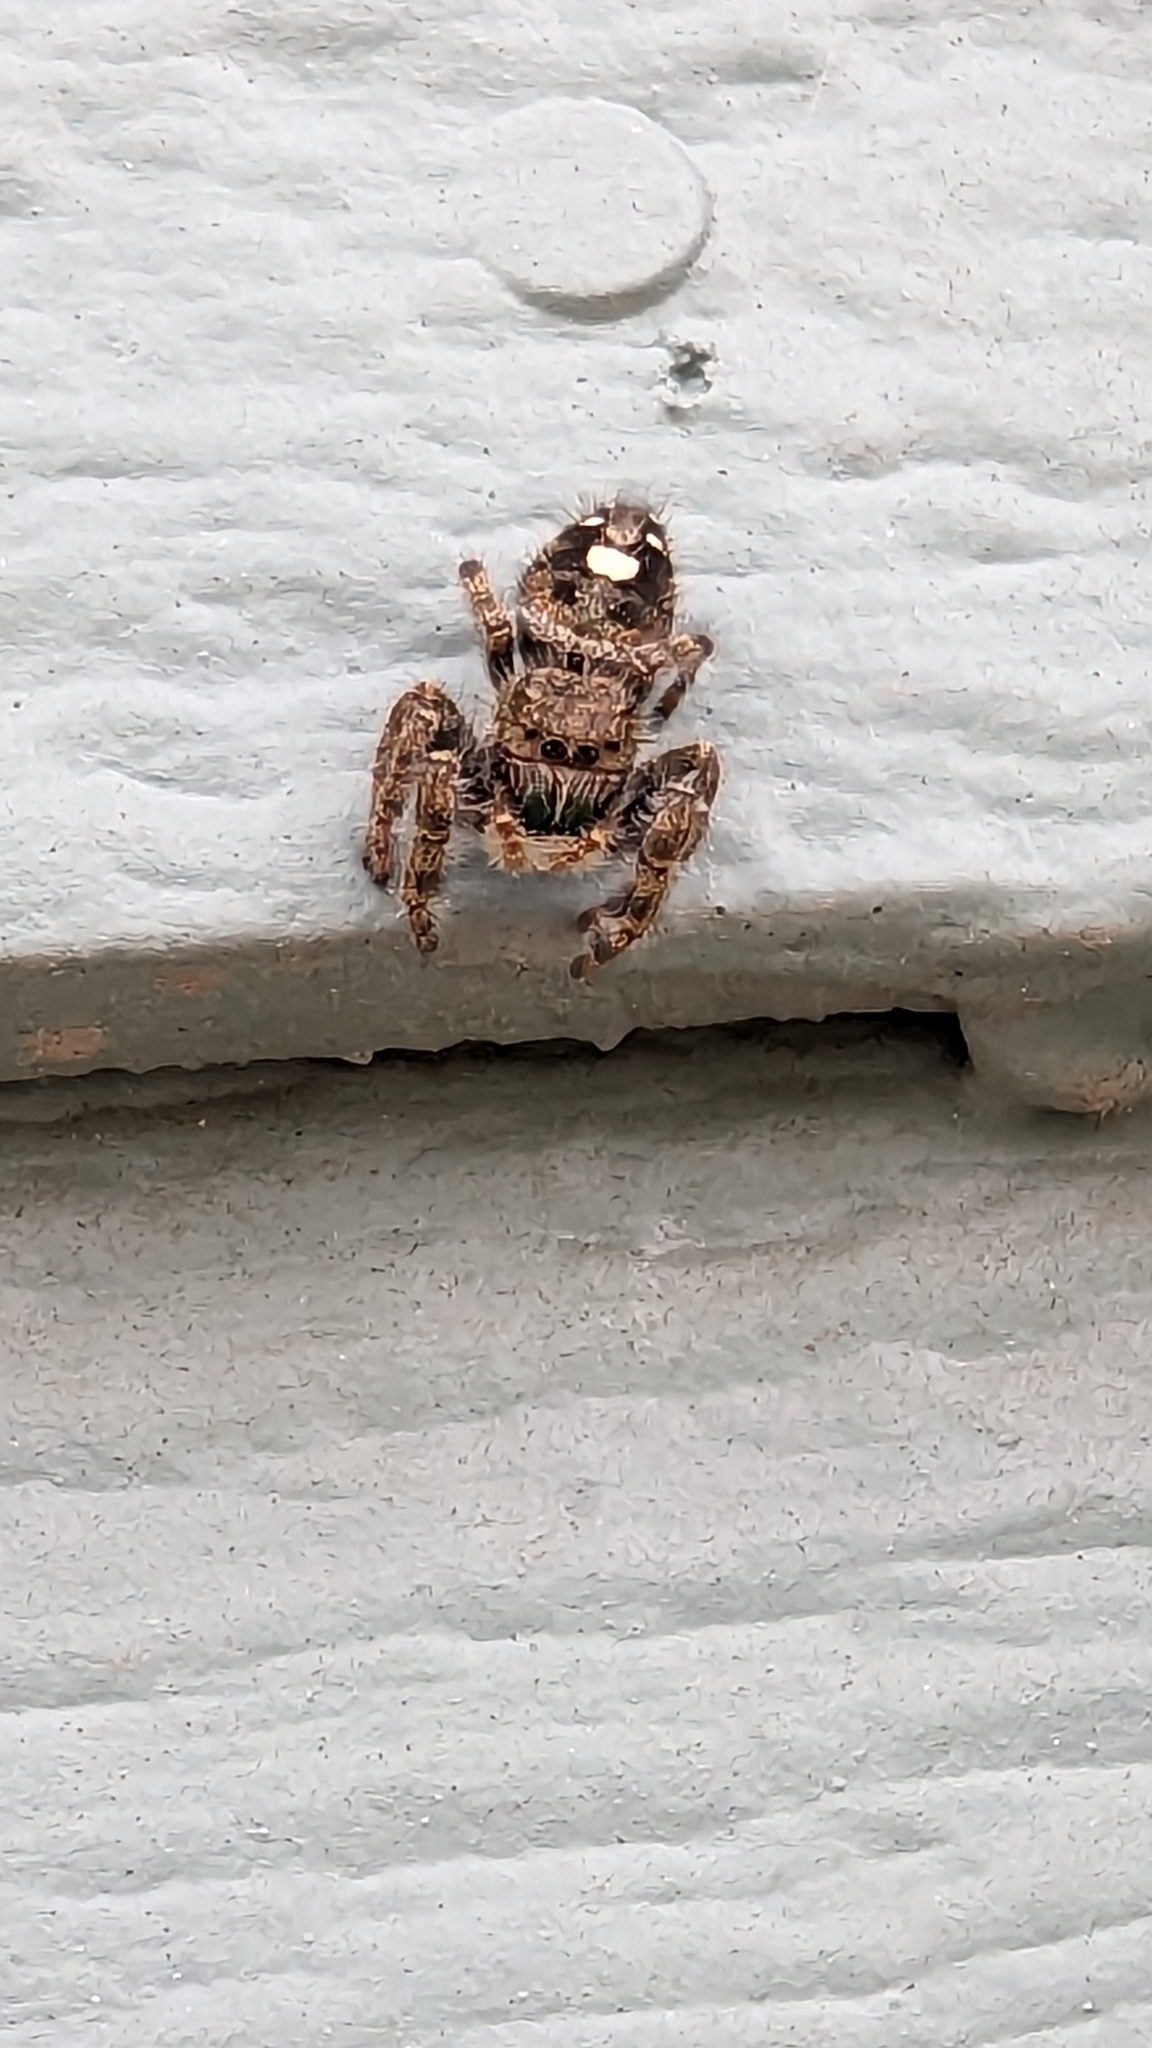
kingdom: Animalia
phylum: Arthropoda
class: Arachnida
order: Araneae
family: Salticidae
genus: Phidippus
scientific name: Phidippus audax
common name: Bold jumper
